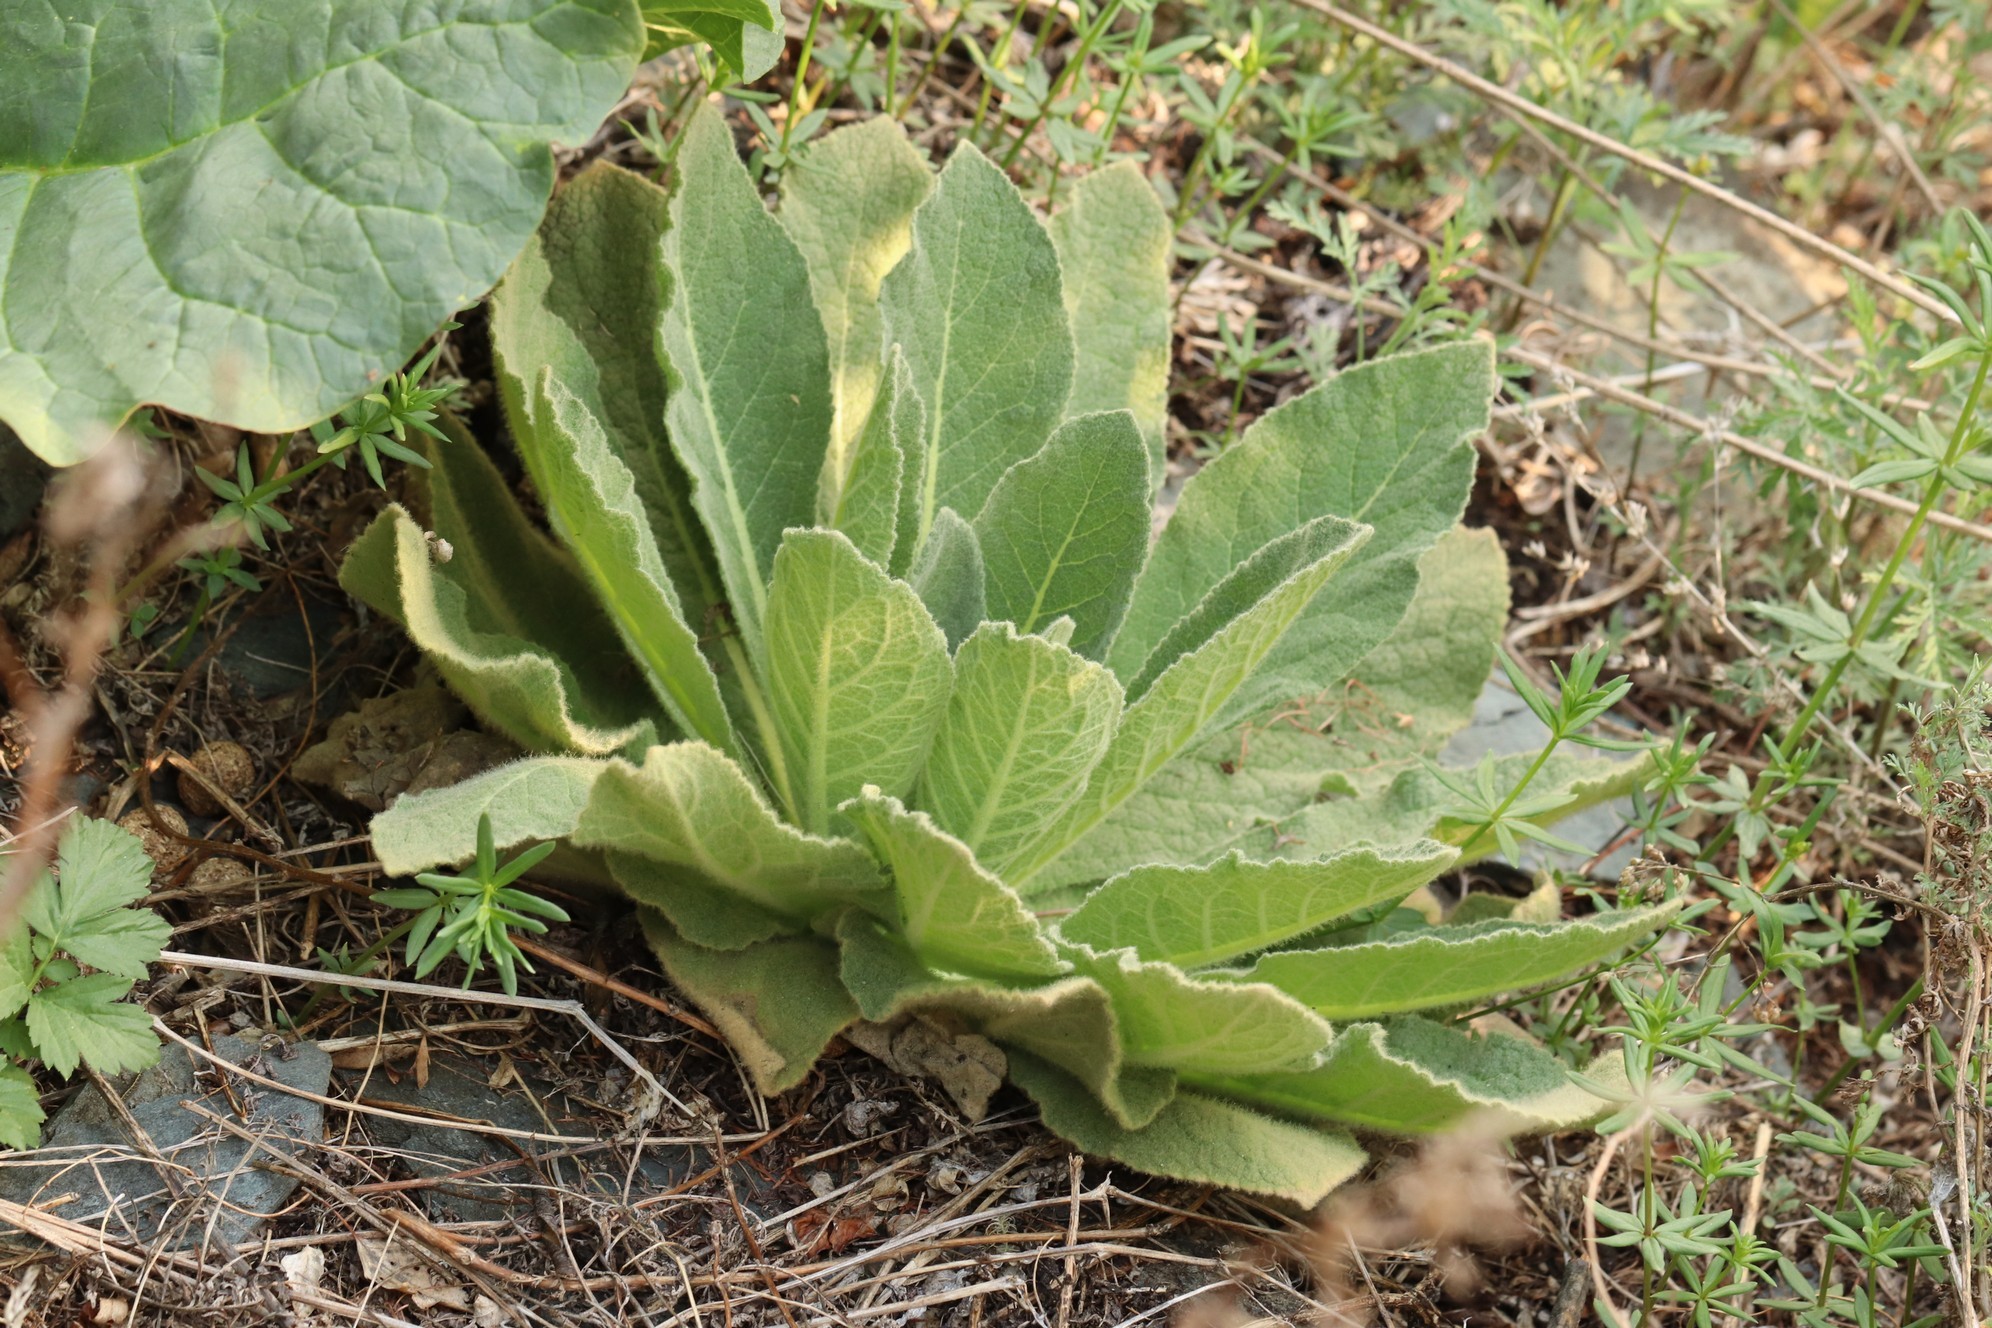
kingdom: Plantae
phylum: Tracheophyta
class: Magnoliopsida
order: Lamiales
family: Scrophulariaceae
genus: Verbascum
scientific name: Verbascum thapsus
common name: Common mullein
